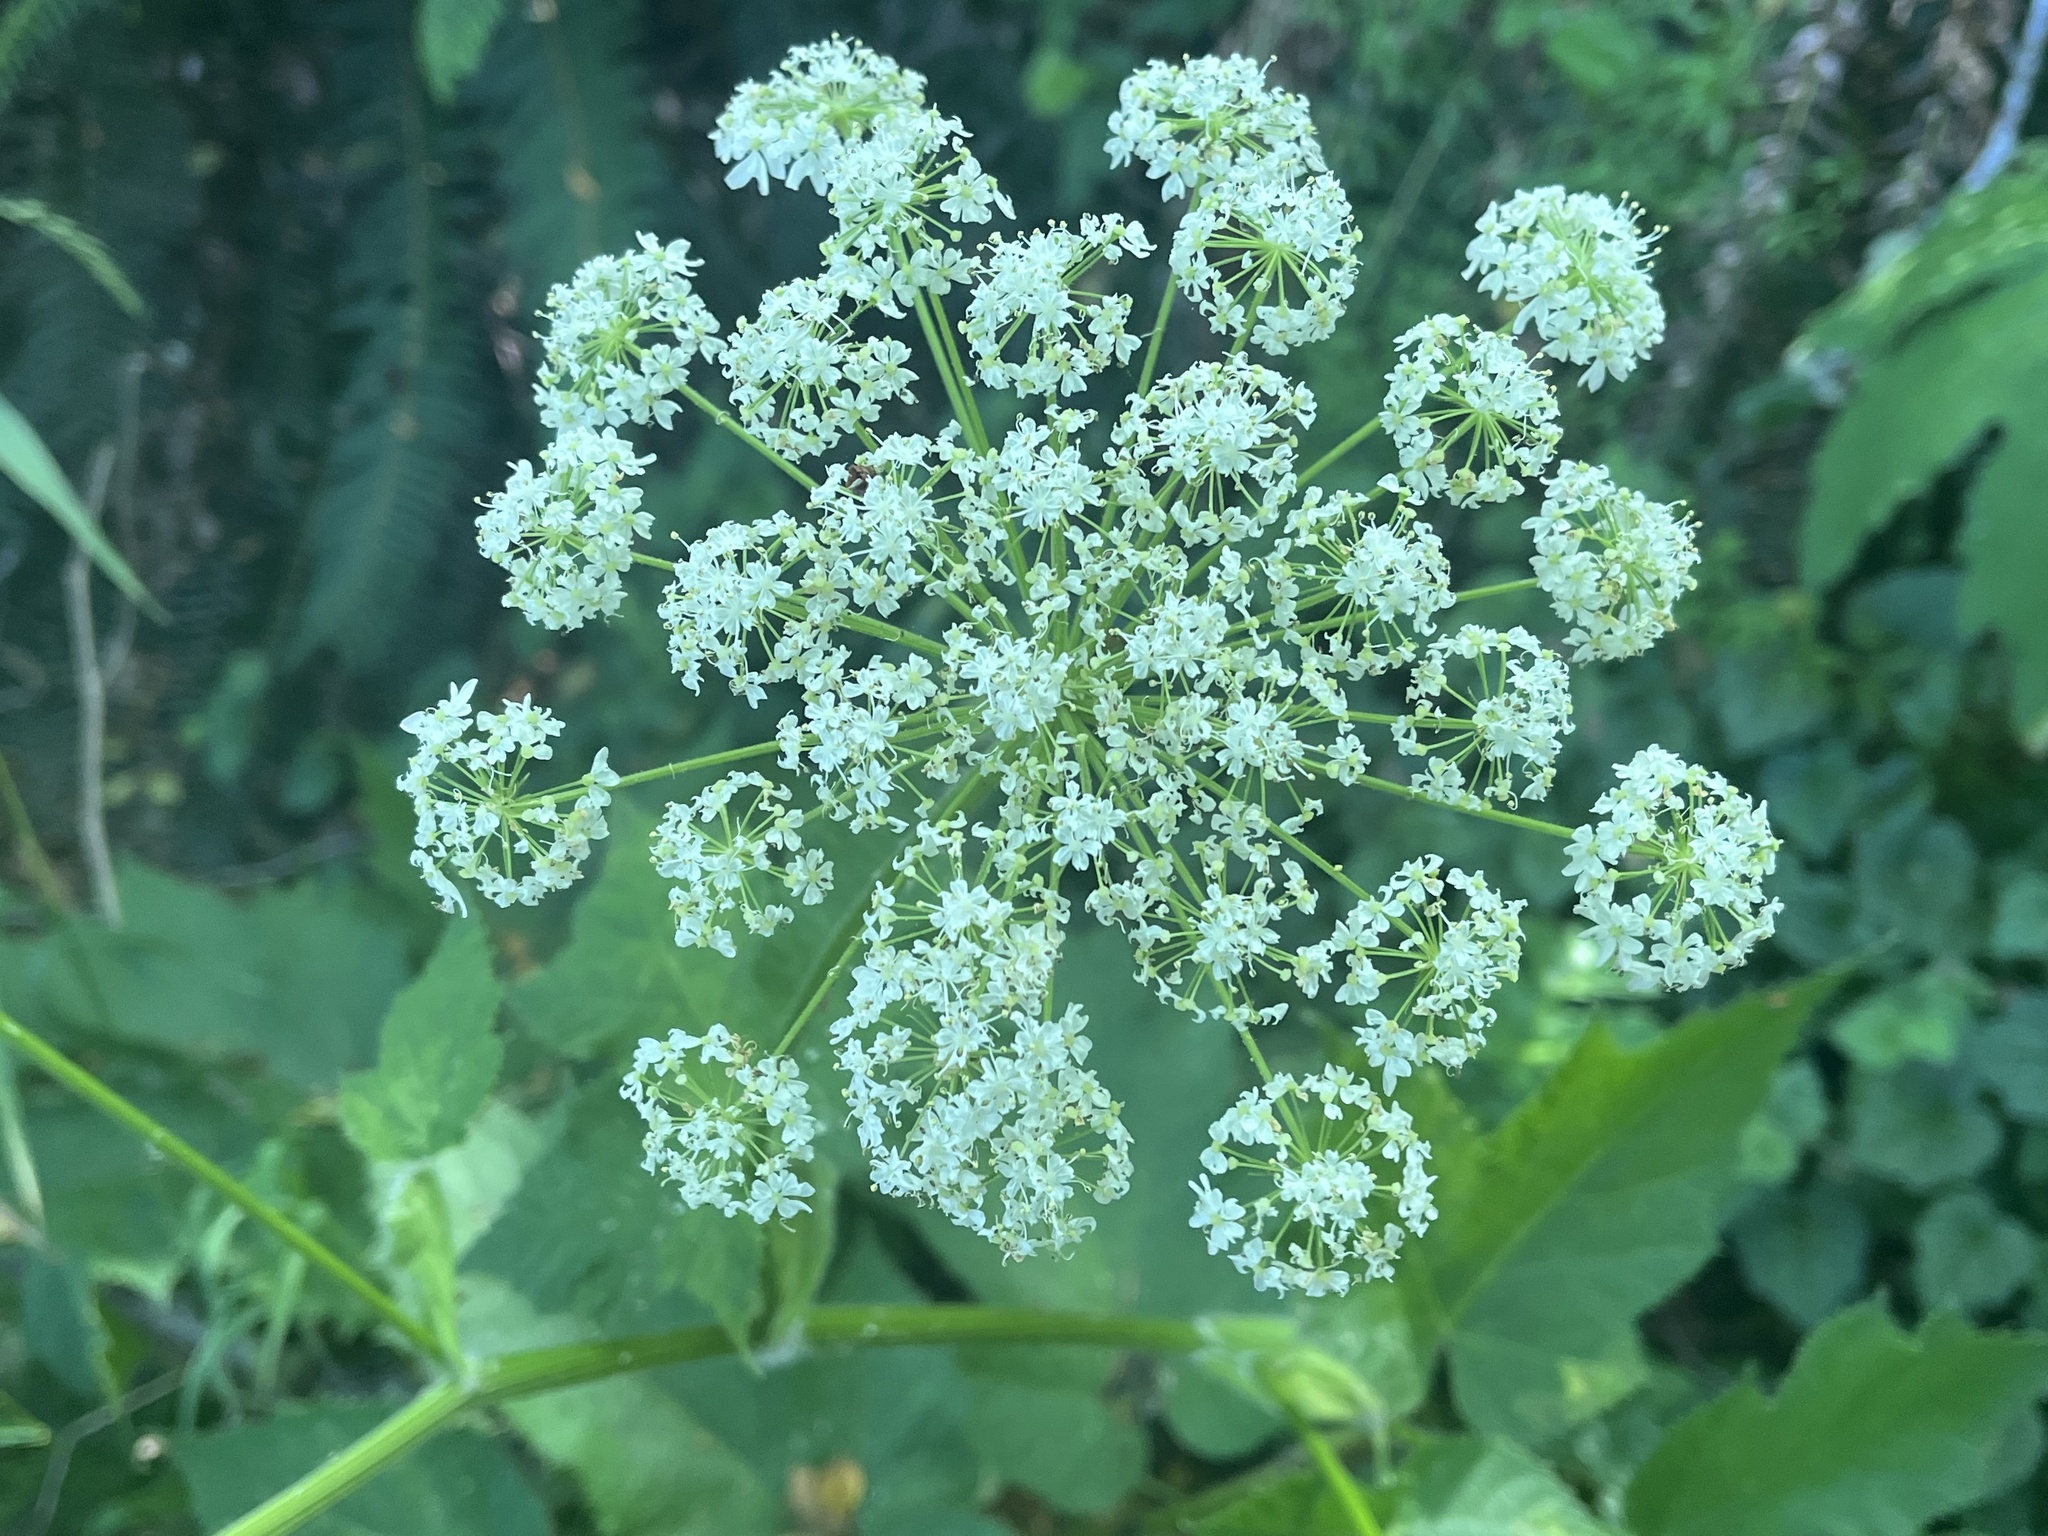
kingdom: Plantae
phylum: Tracheophyta
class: Magnoliopsida
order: Apiales
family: Apiaceae
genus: Heracleum
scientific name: Heracleum maximum
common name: American cow parsnip
